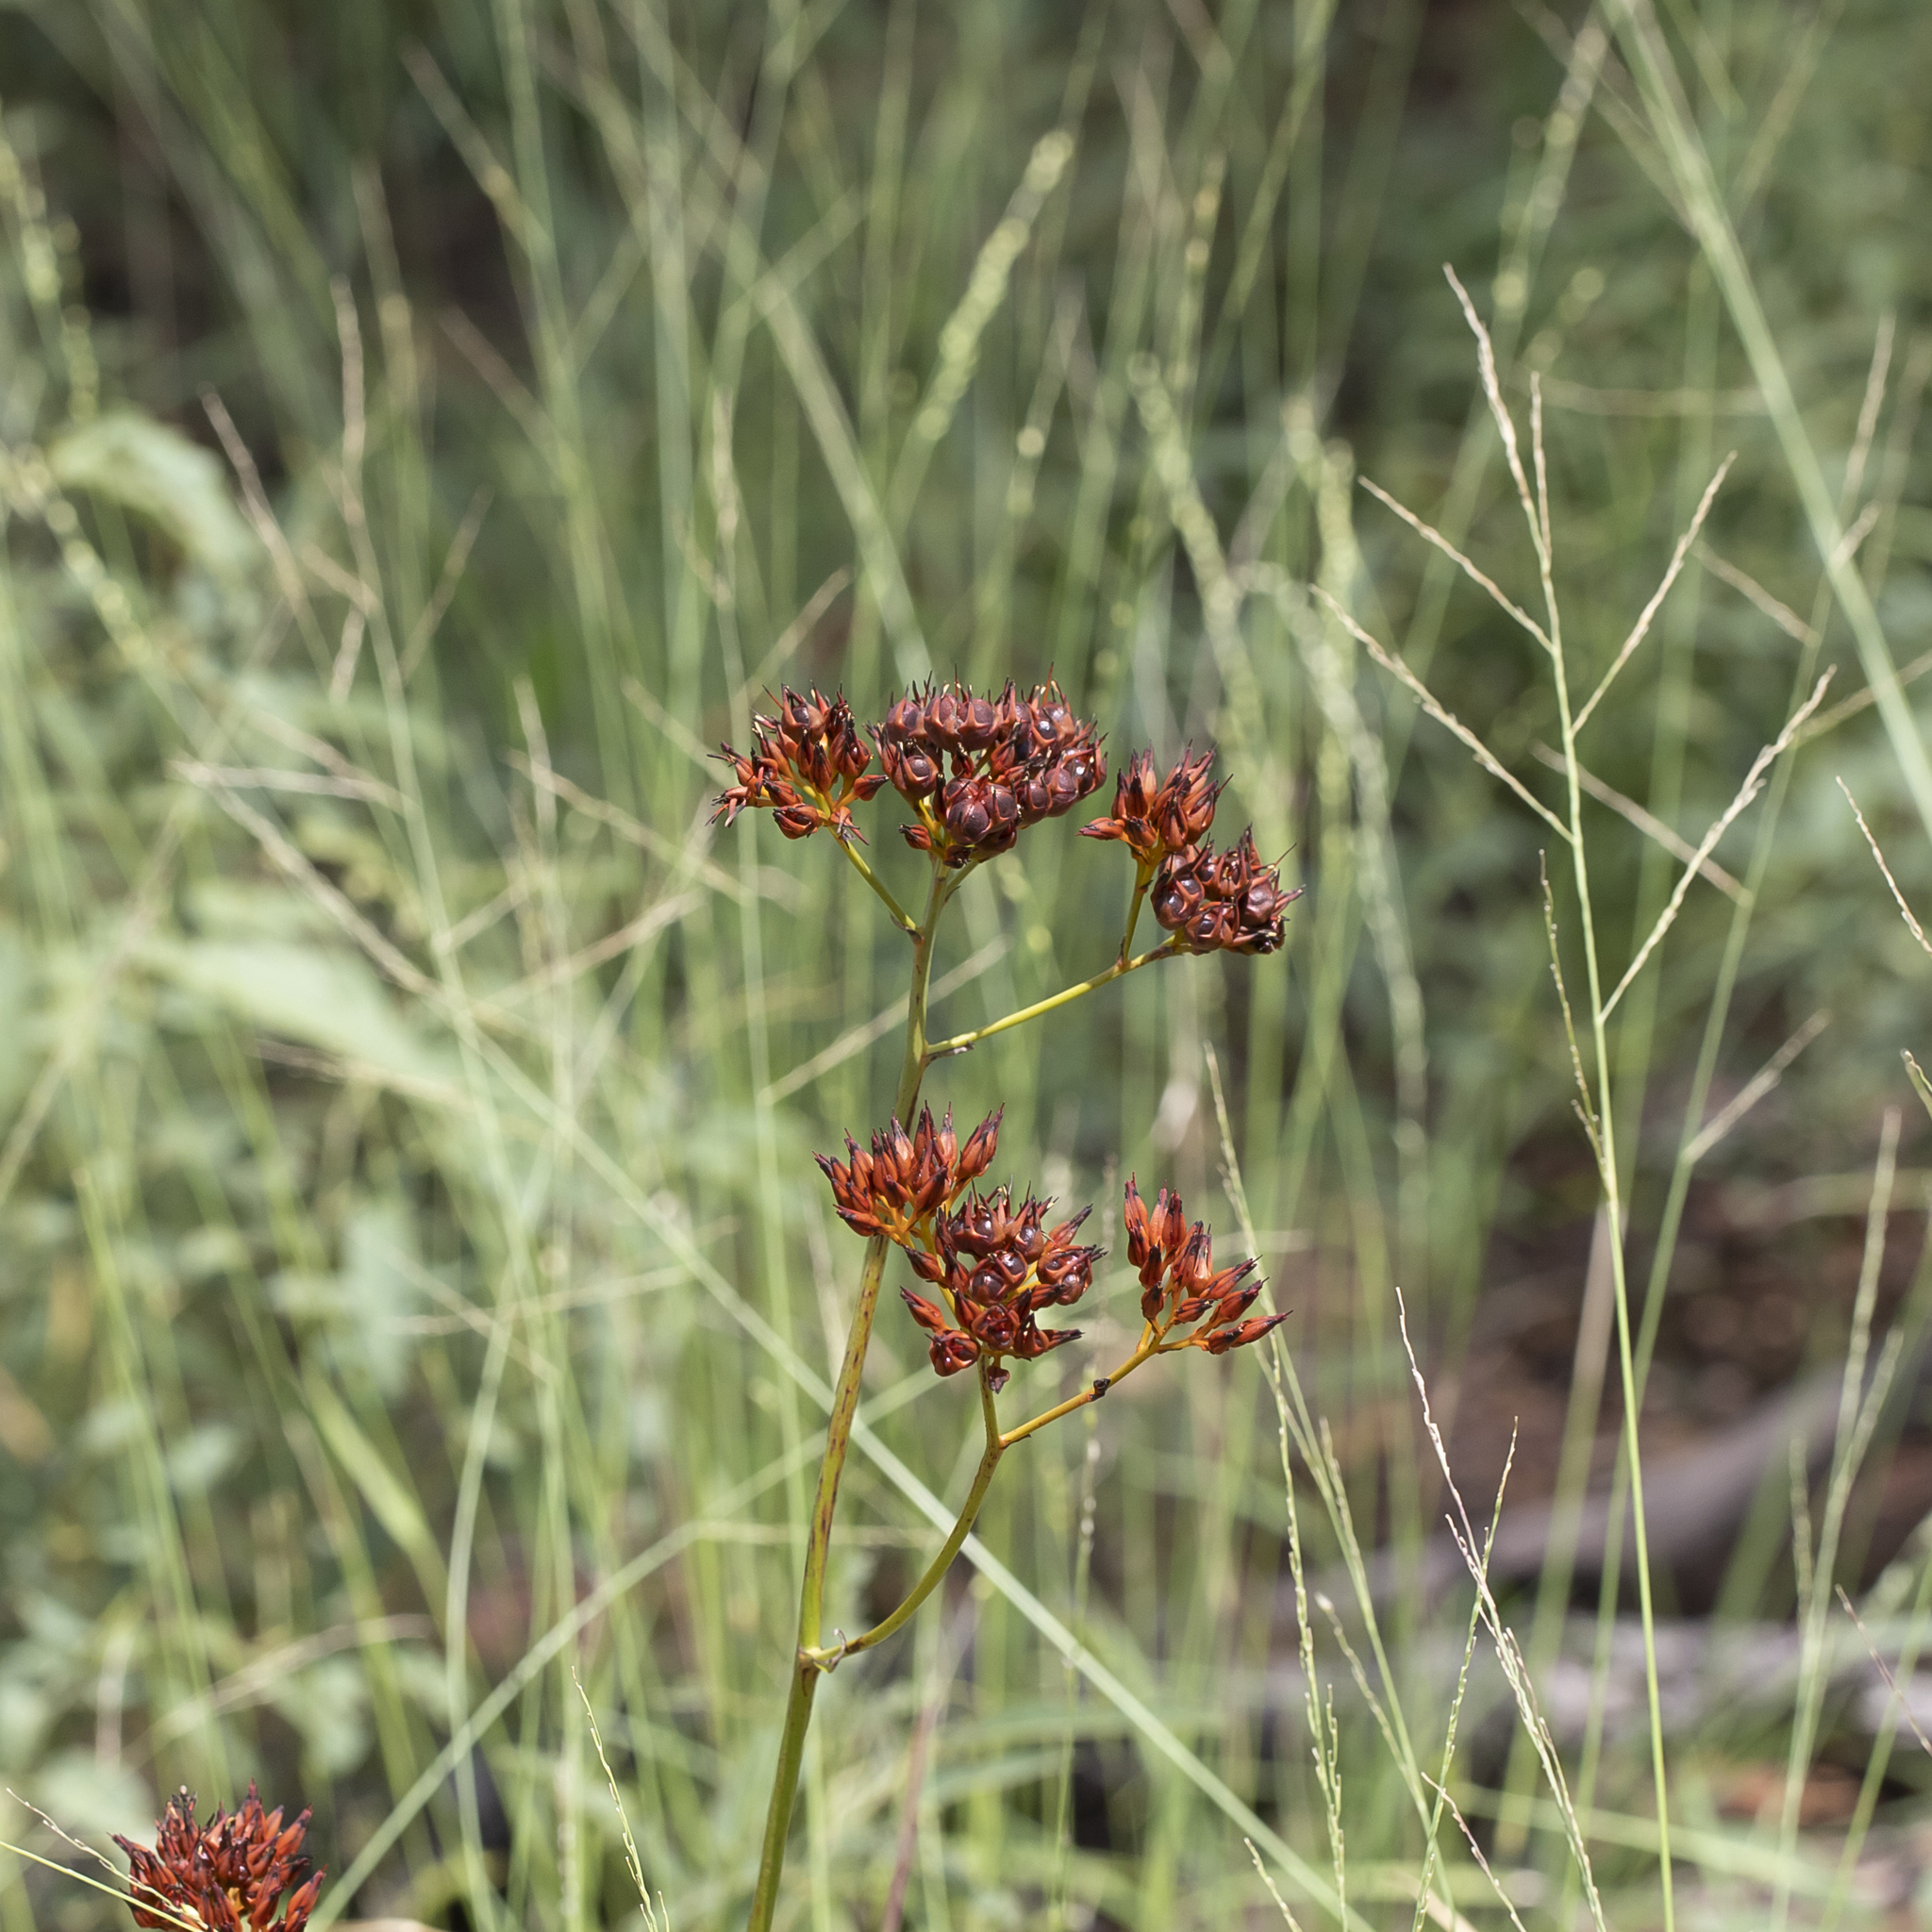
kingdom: Plantae
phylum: Tracheophyta
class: Liliopsida
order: Commelinales
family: Haemodoraceae
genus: Haemodorum
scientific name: Haemodorum coccineum
